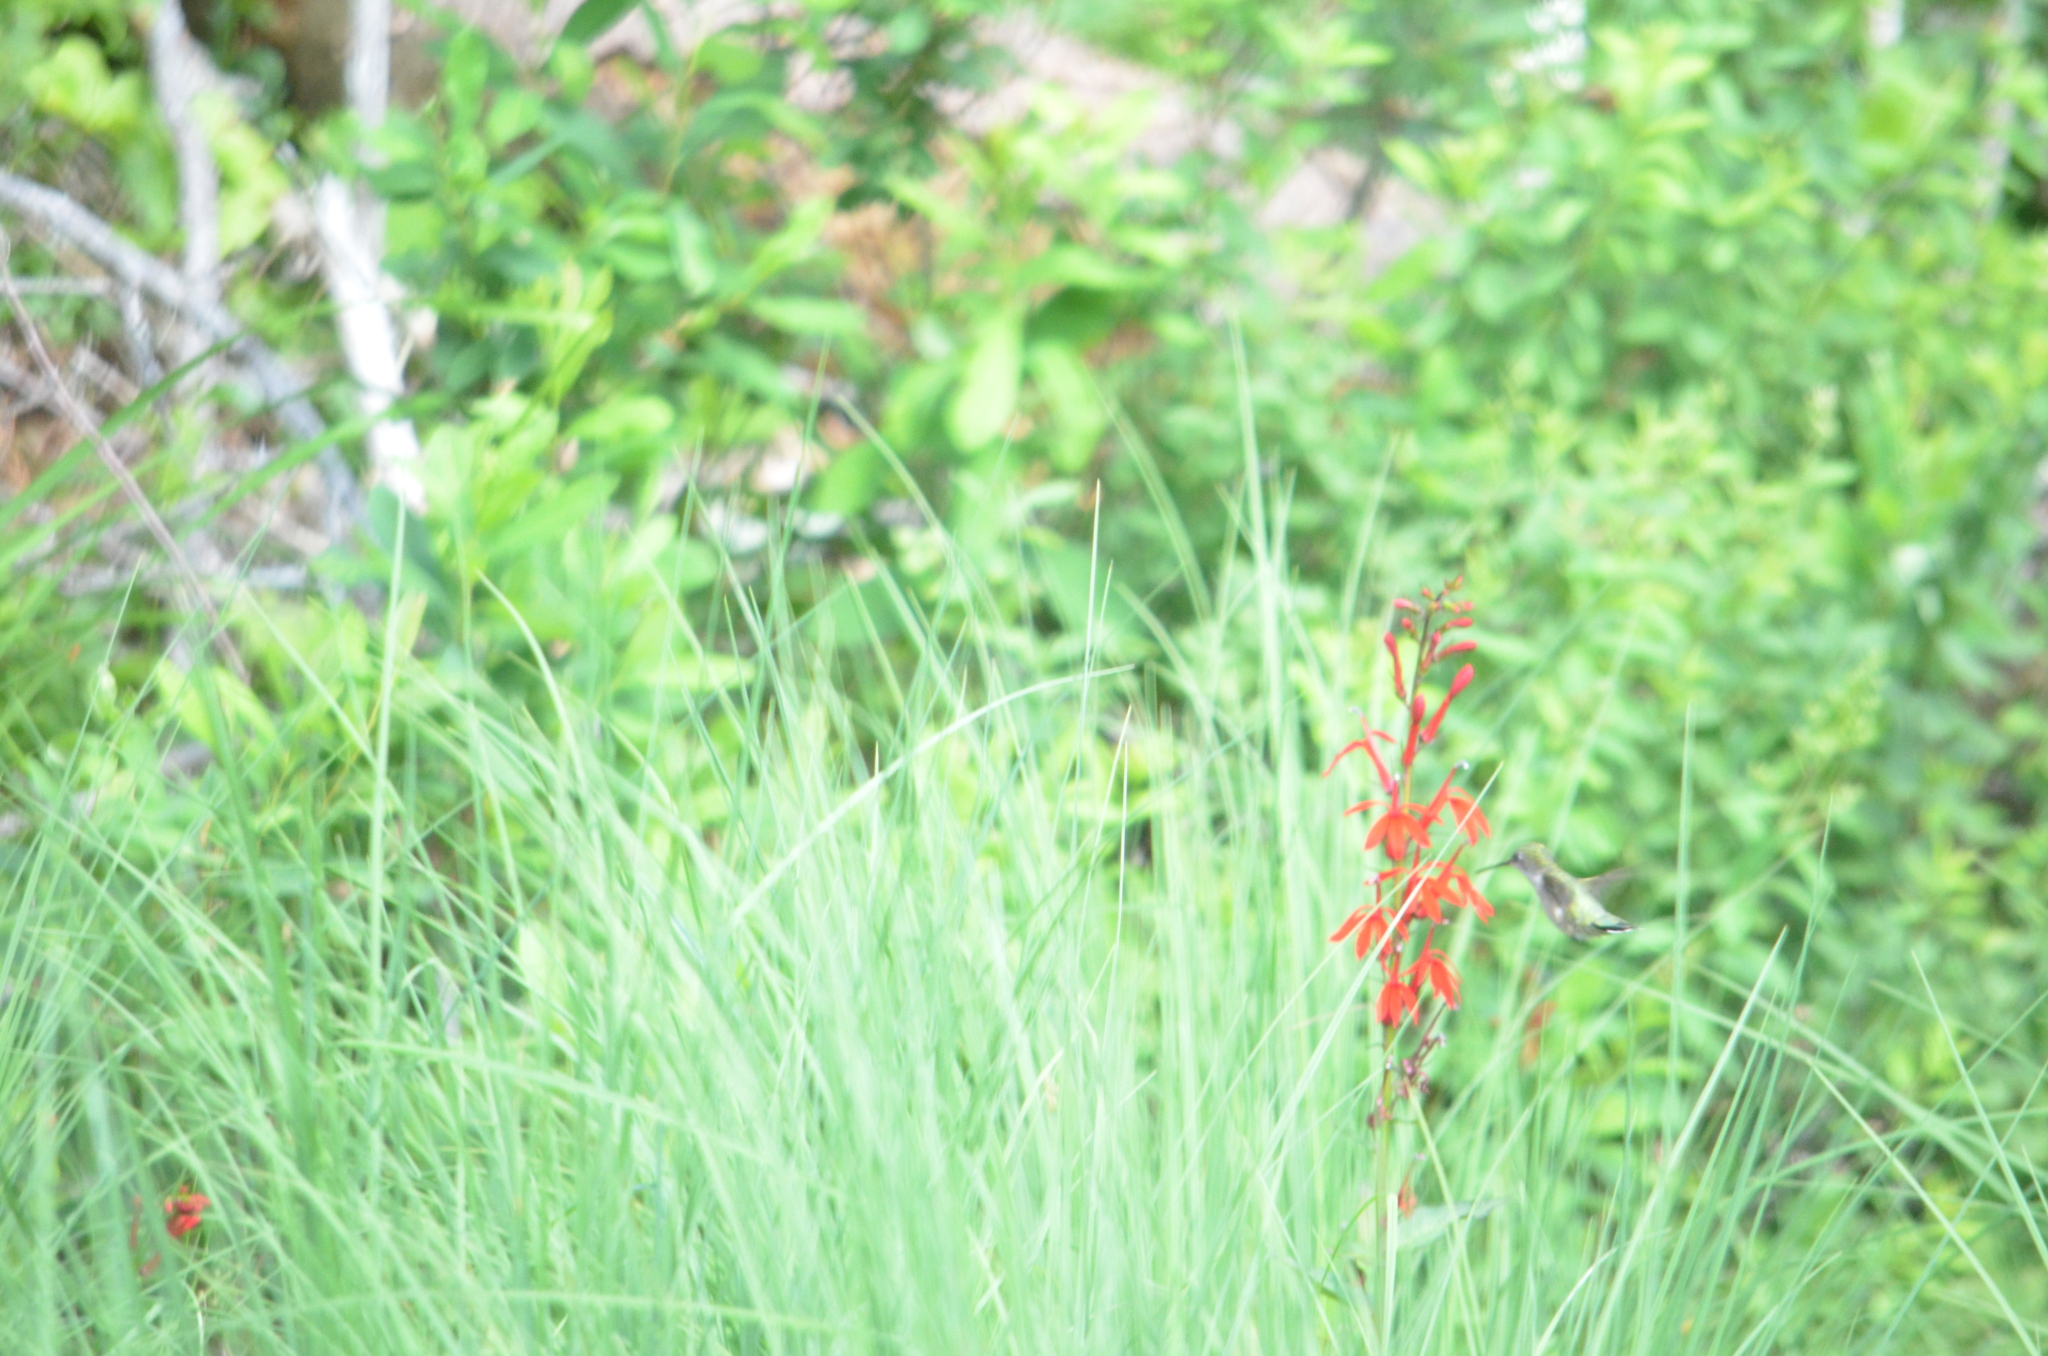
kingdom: Animalia
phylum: Chordata
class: Aves
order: Apodiformes
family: Trochilidae
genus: Archilochus
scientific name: Archilochus colubris
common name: Ruby-throated hummingbird
